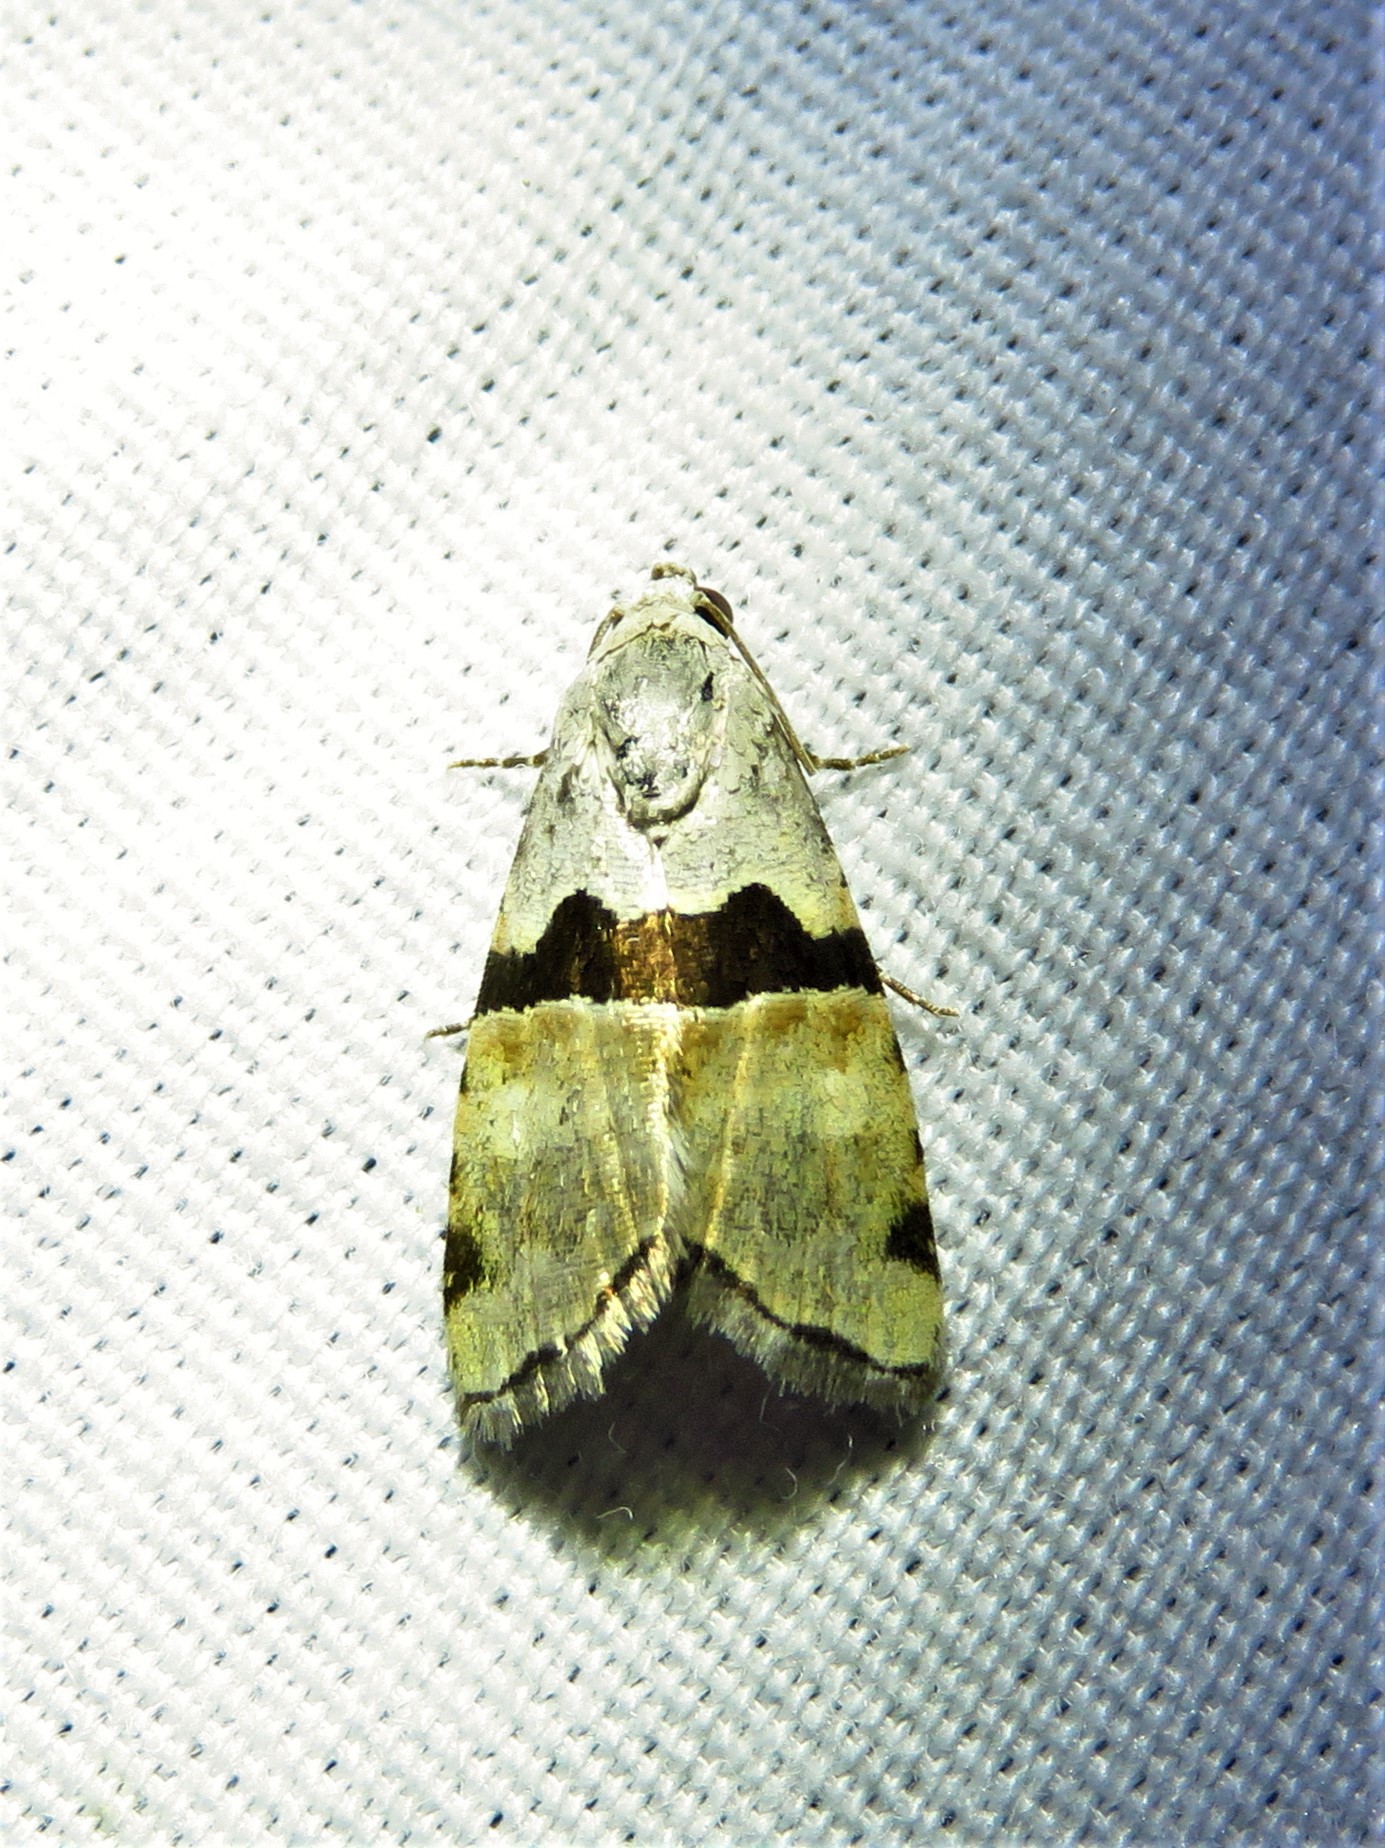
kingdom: Animalia
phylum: Arthropoda
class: Insecta
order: Lepidoptera
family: Noctuidae
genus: Cobubatha
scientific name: Cobubatha orthozona
